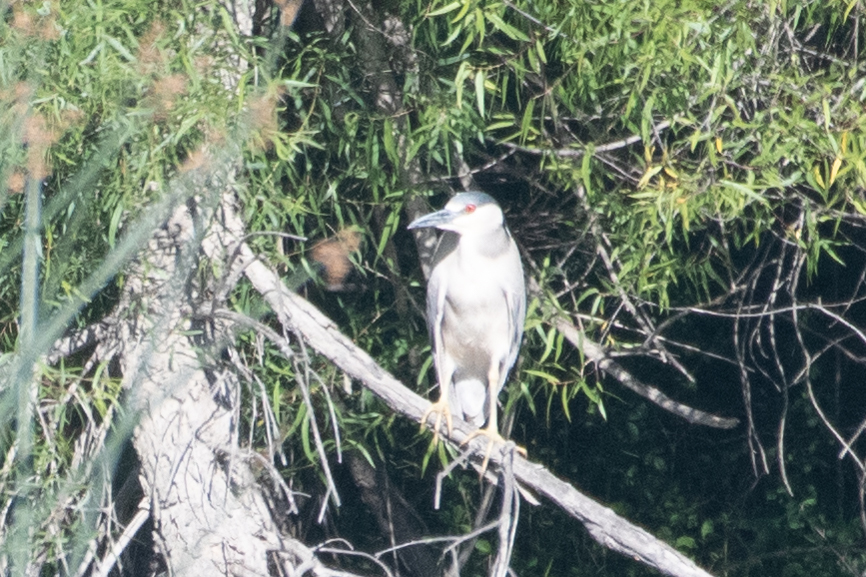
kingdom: Animalia
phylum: Chordata
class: Aves
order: Pelecaniformes
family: Ardeidae
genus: Nycticorax
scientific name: Nycticorax nycticorax
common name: Black-crowned night heron
